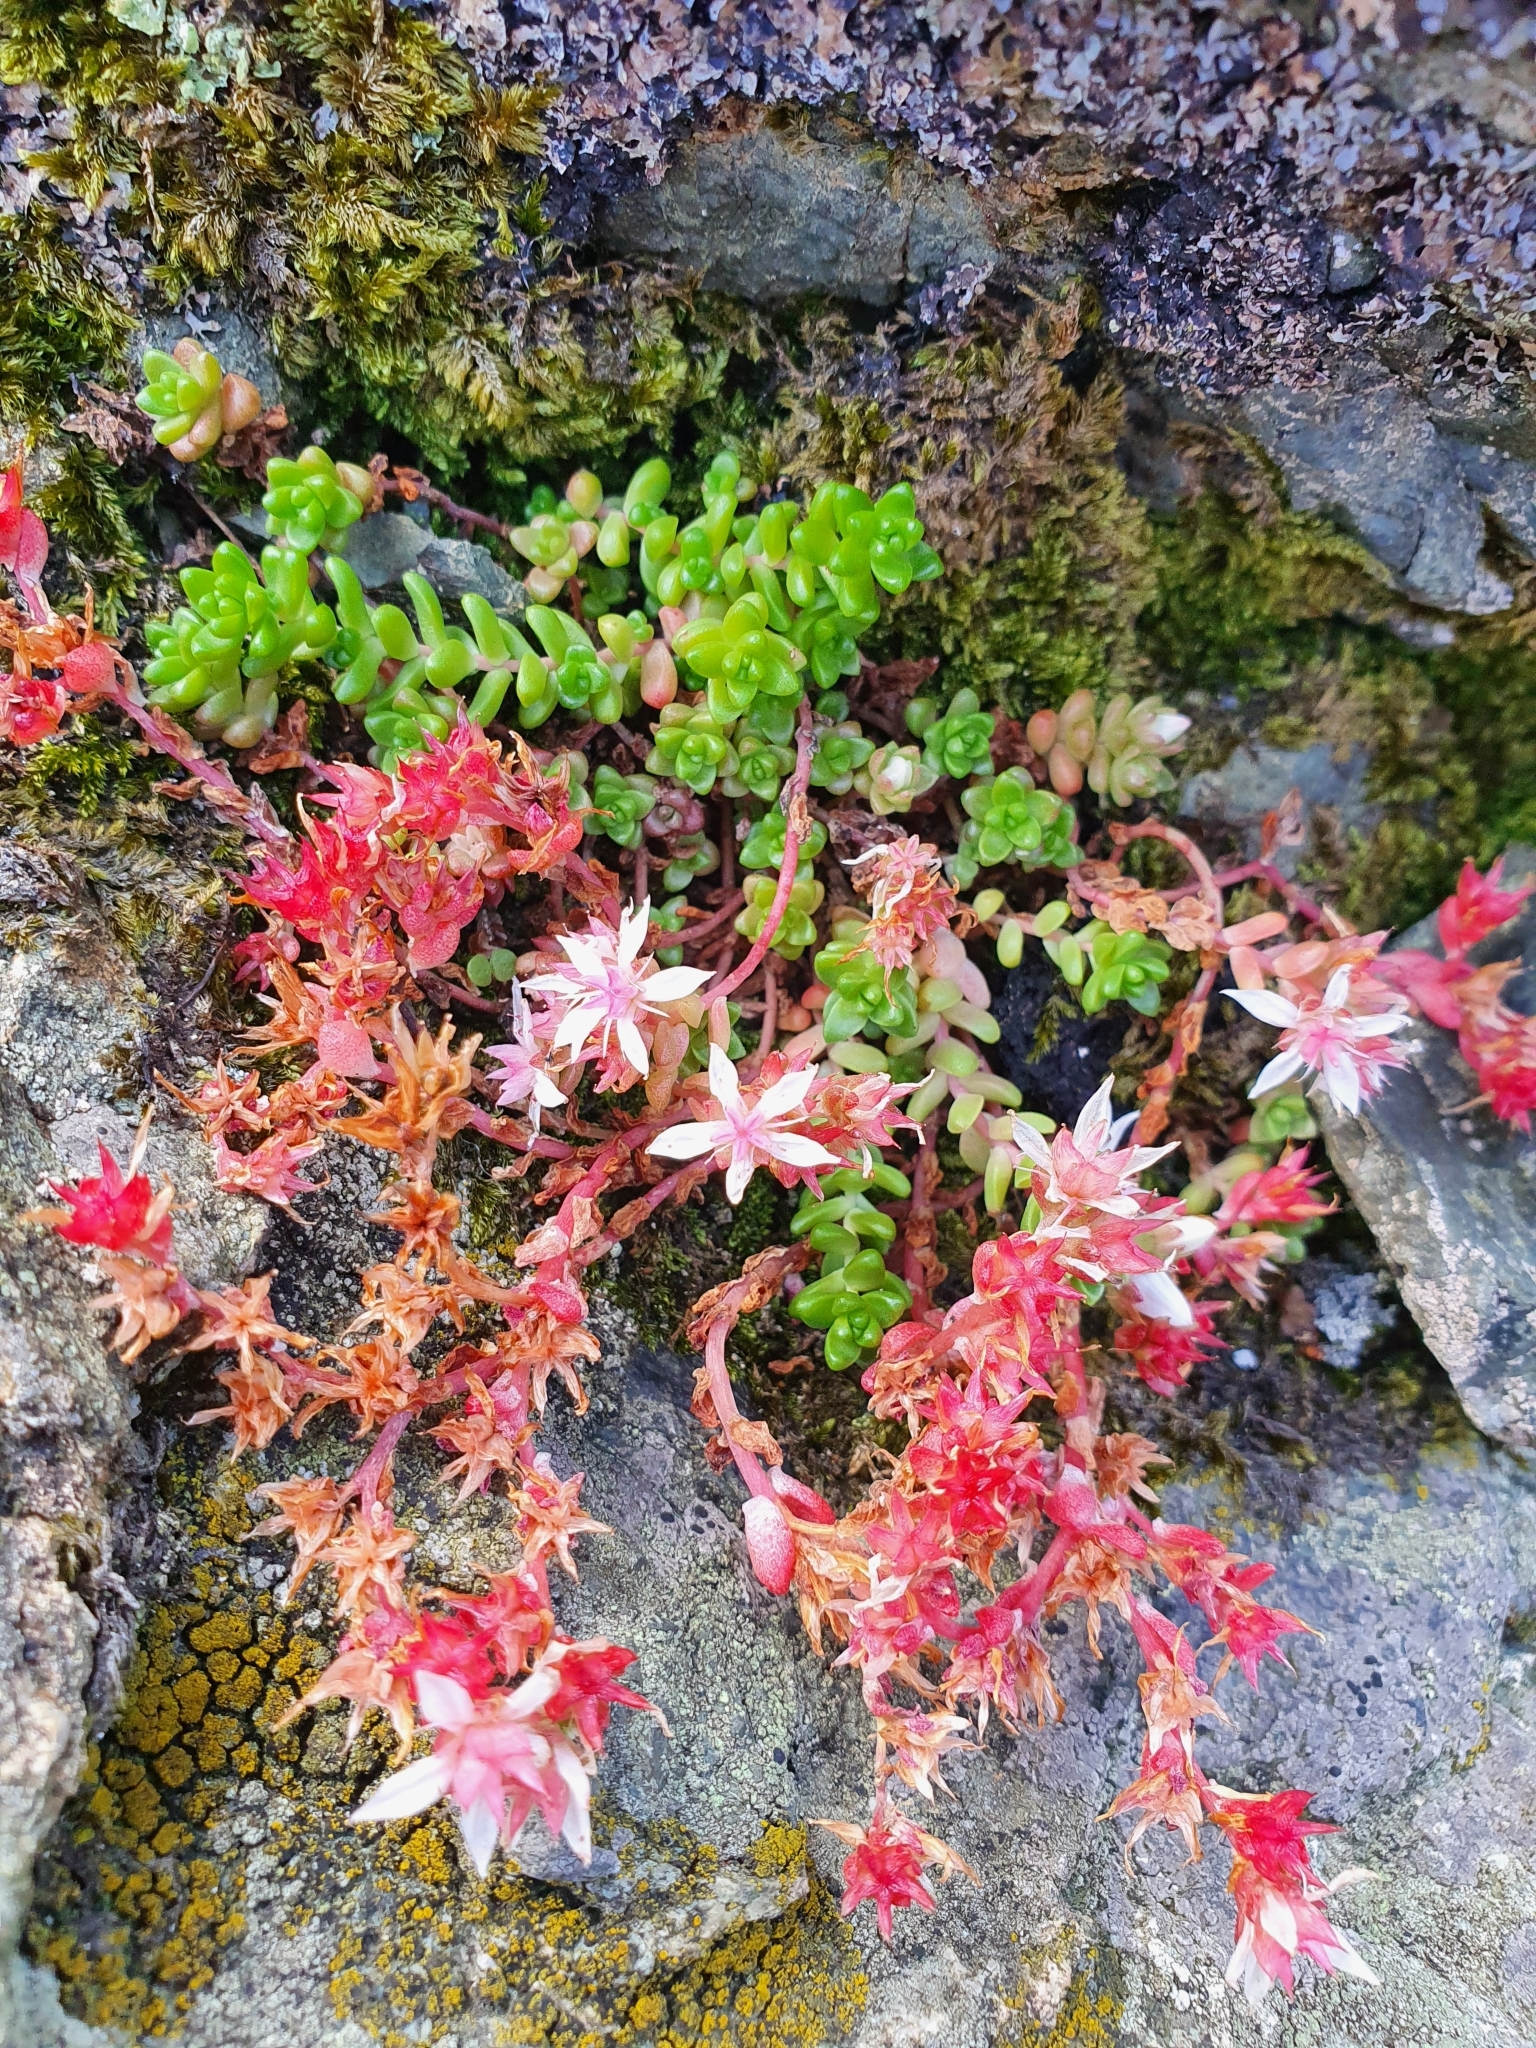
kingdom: Plantae
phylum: Tracheophyta
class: Magnoliopsida
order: Saxifragales
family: Crassulaceae
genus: Sedum
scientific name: Sedum anglicum
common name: English stonecrop
